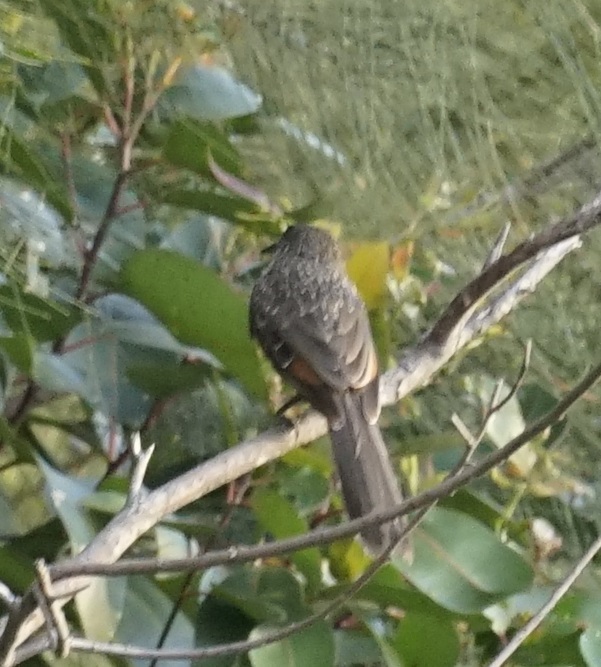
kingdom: Animalia
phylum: Chordata
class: Aves
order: Passeriformes
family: Meliphagidae
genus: Anthochaera
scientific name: Anthochaera chrysoptera
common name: Little wattlebird
